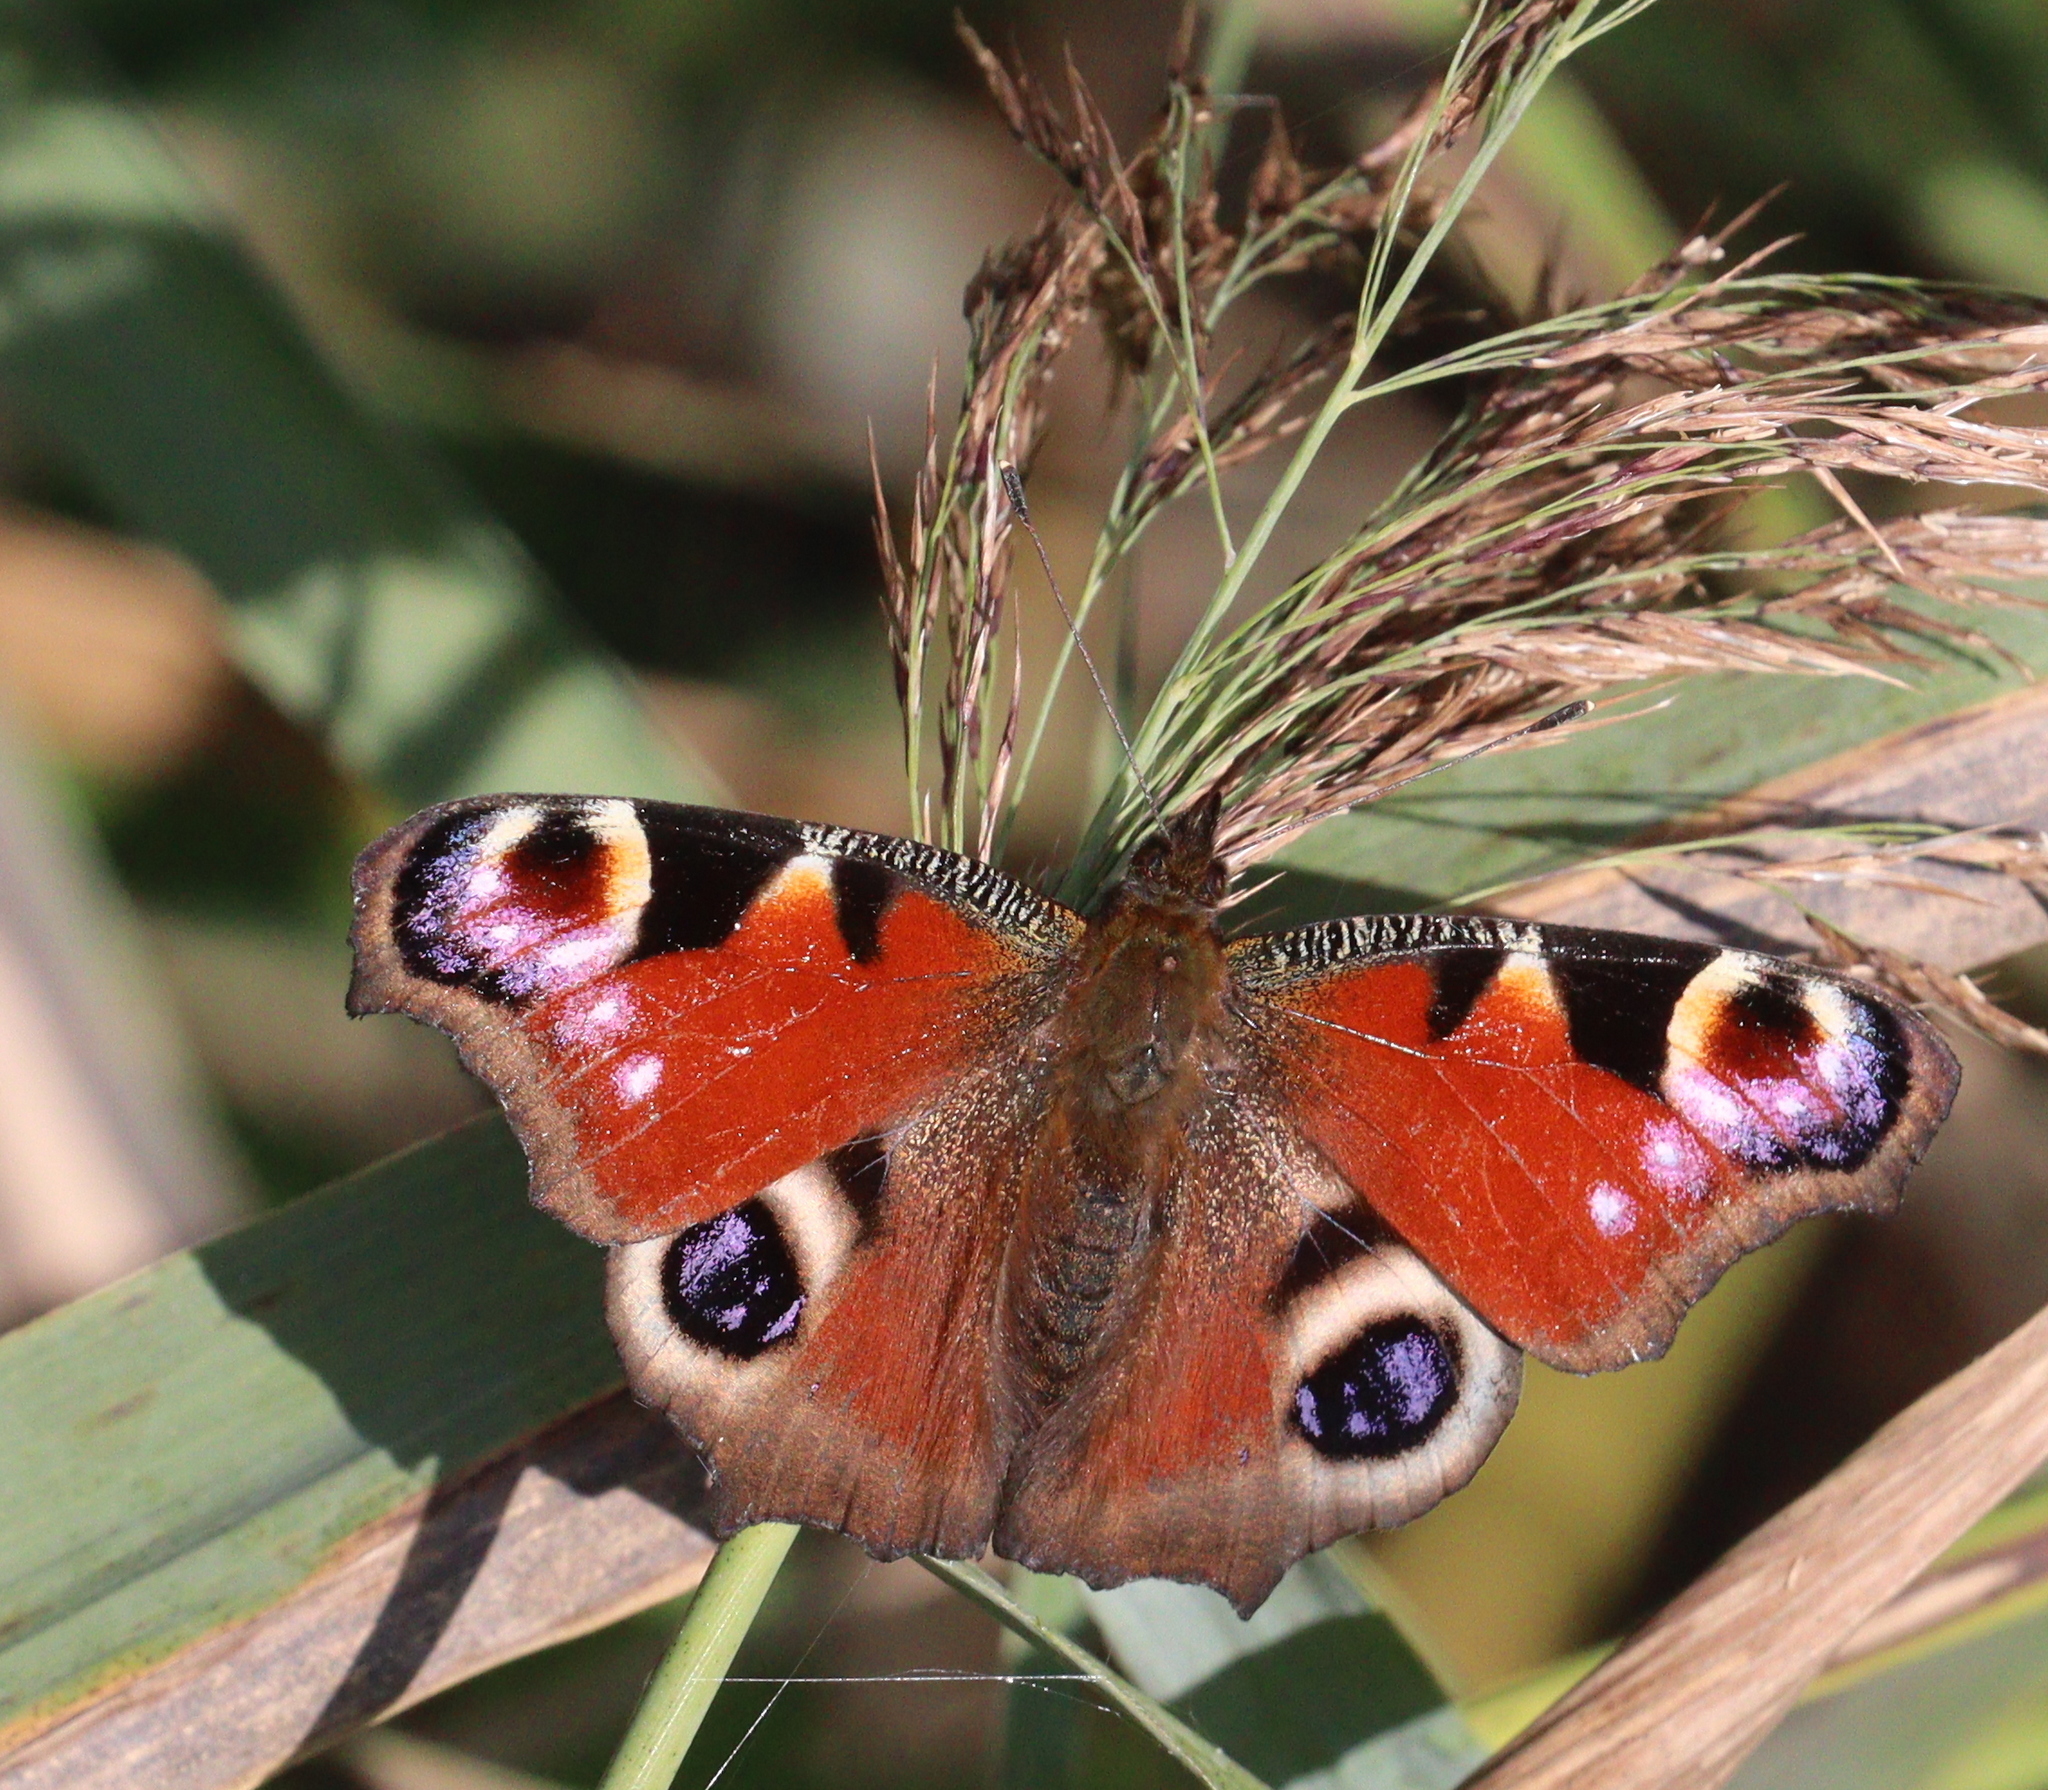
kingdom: Animalia
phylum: Arthropoda
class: Insecta
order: Lepidoptera
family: Nymphalidae
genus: Aglais
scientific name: Aglais io
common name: Peacock
